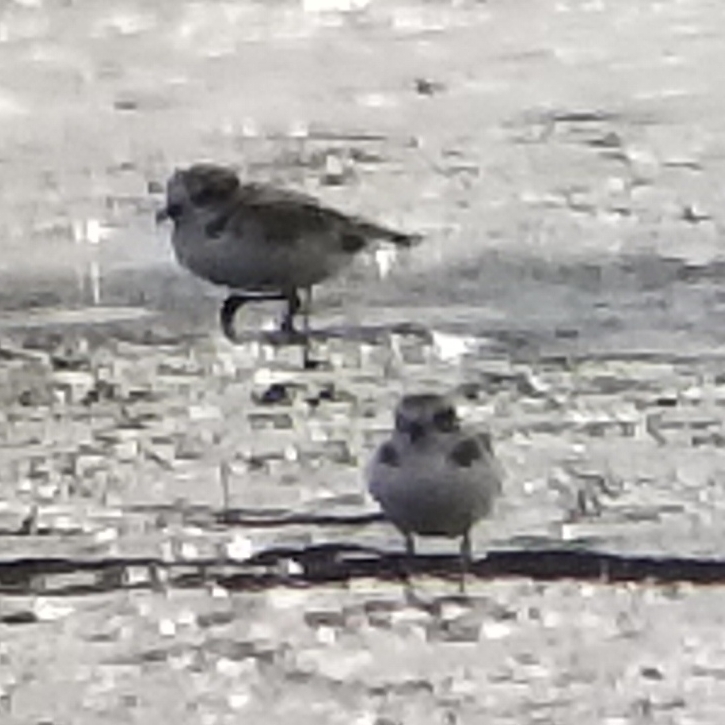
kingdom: Animalia
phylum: Chordata
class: Aves
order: Charadriiformes
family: Charadriidae
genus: Anarhynchus
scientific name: Anarhynchus
